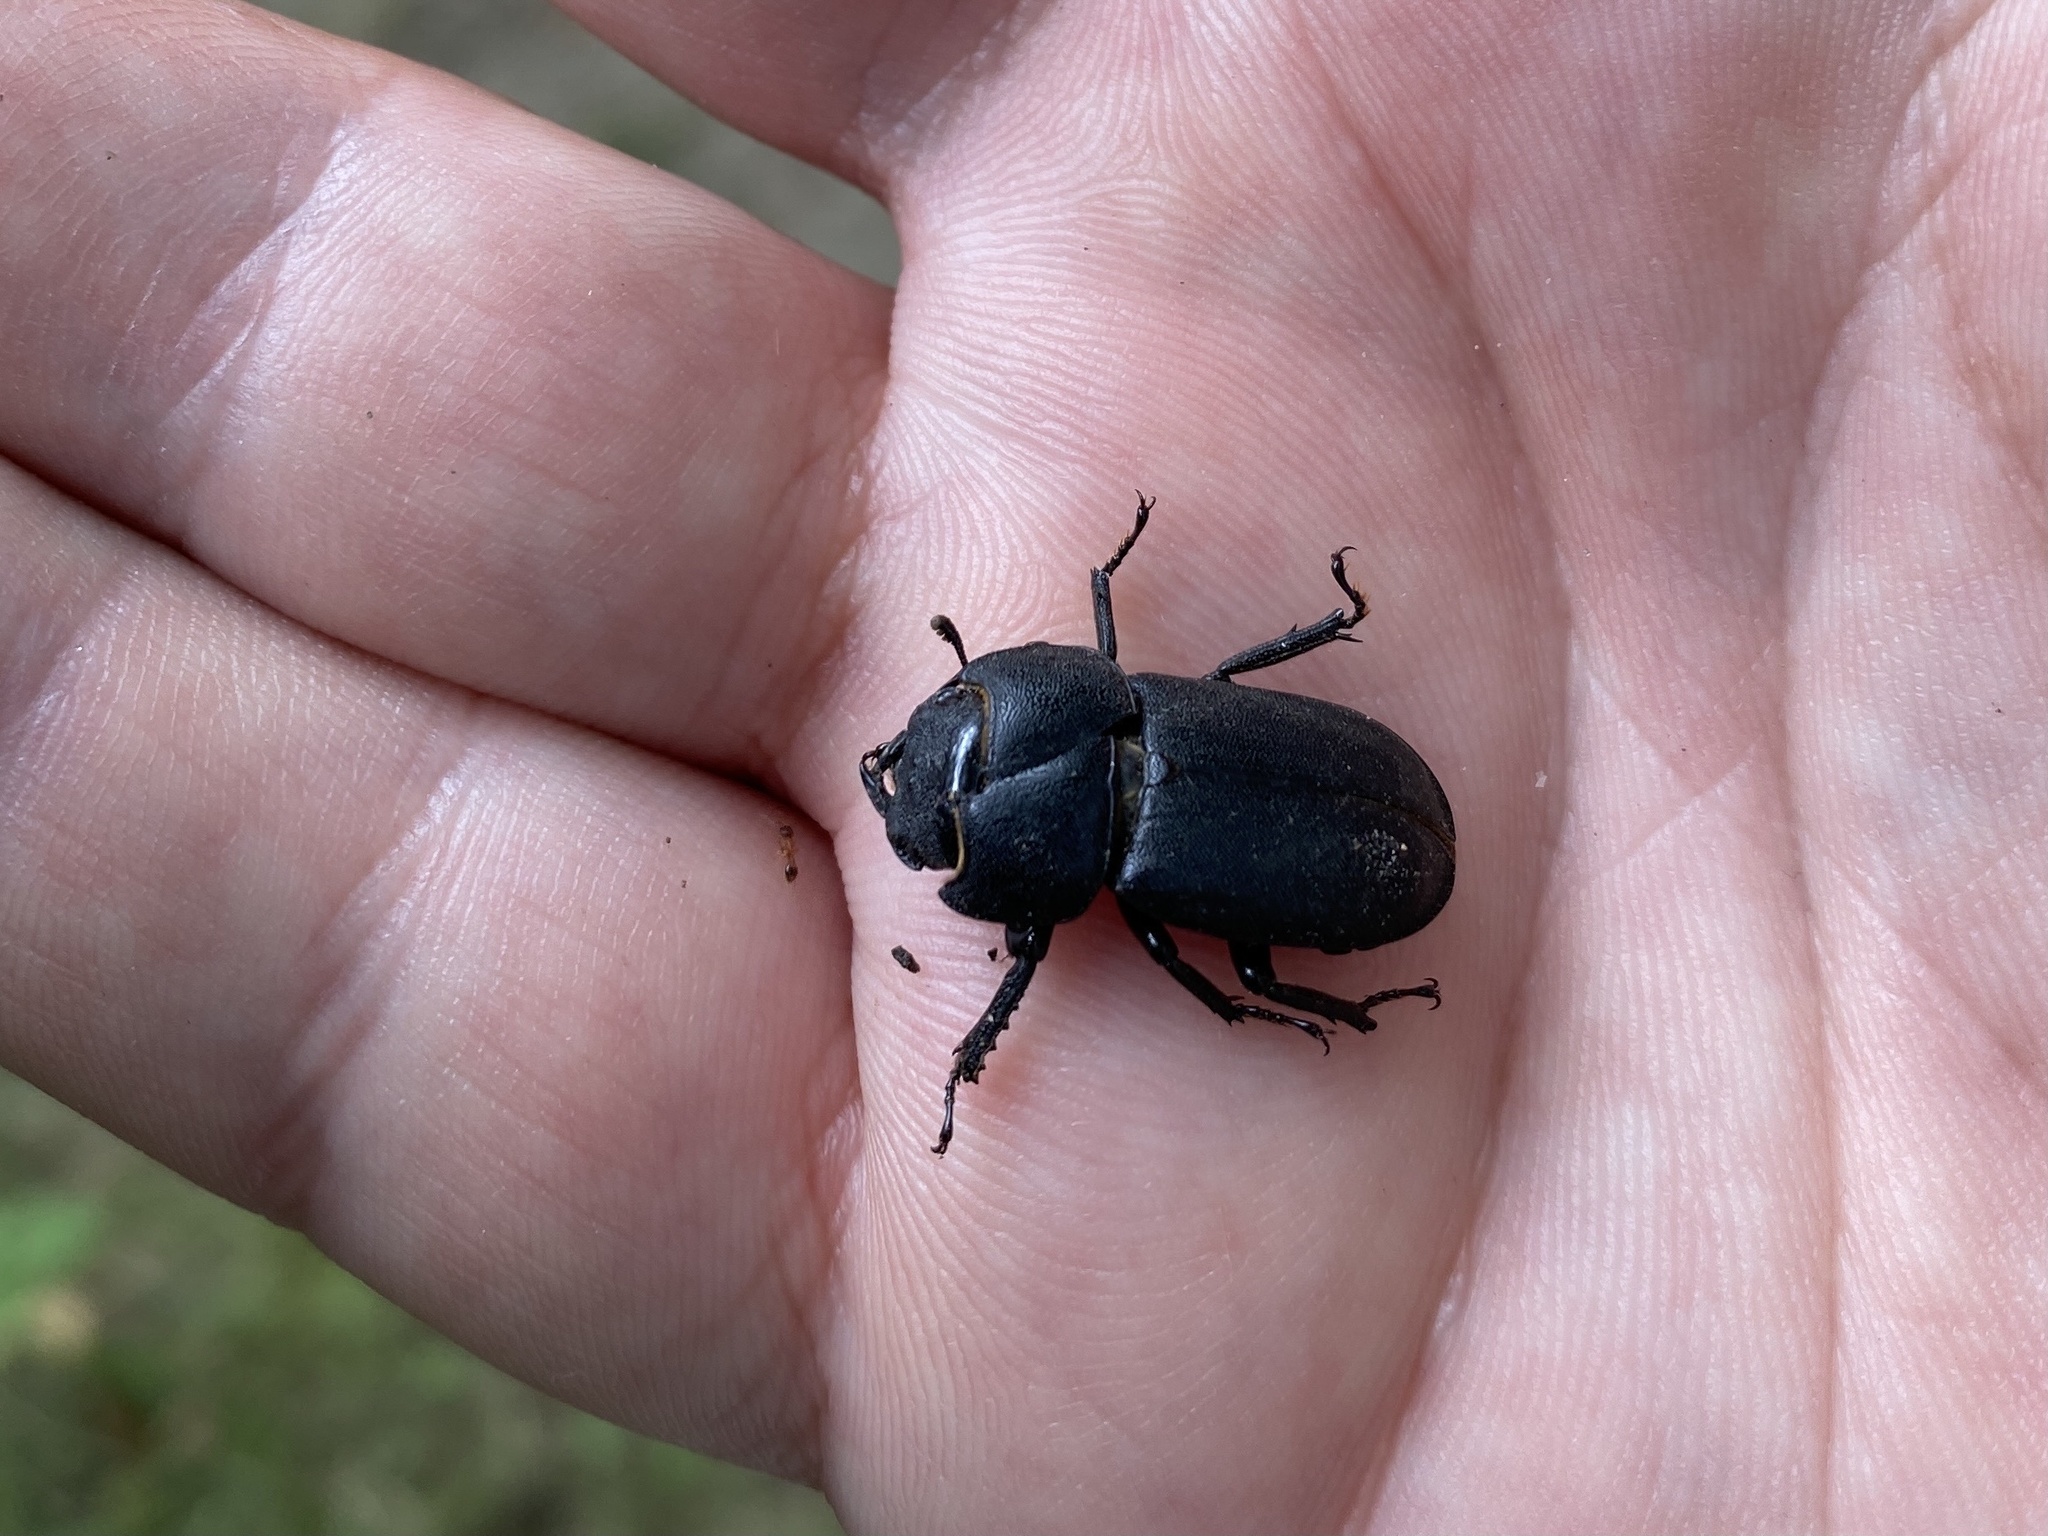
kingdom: Animalia
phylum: Arthropoda
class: Insecta
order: Coleoptera
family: Lucanidae
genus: Dorcus
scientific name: Dorcus parallelipipedus
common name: Lesser stag beetle
